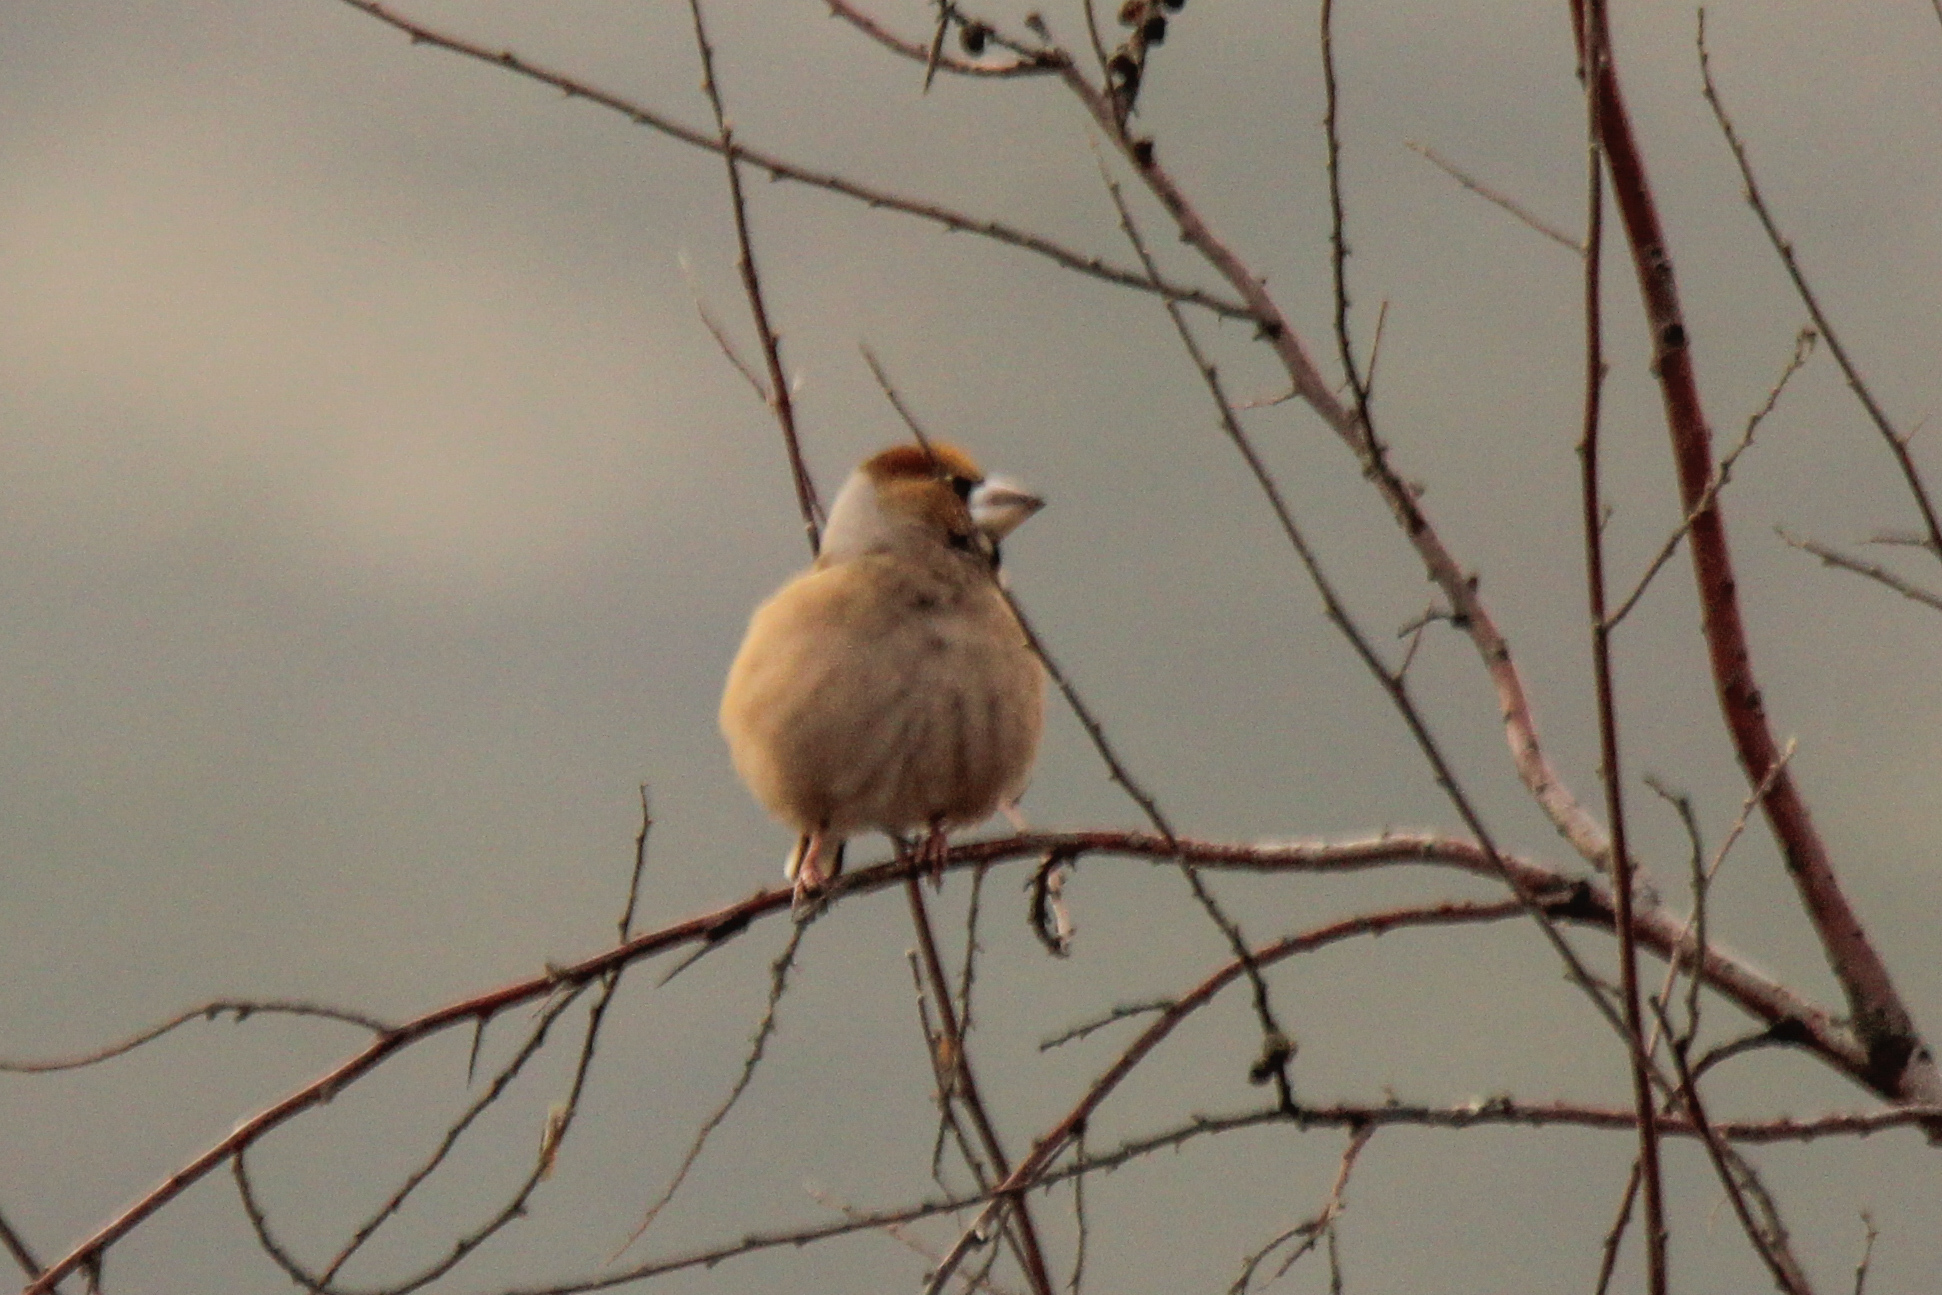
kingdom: Animalia
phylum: Chordata
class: Aves
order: Passeriformes
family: Fringillidae
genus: Coccothraustes
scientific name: Coccothraustes coccothraustes
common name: Hawfinch
